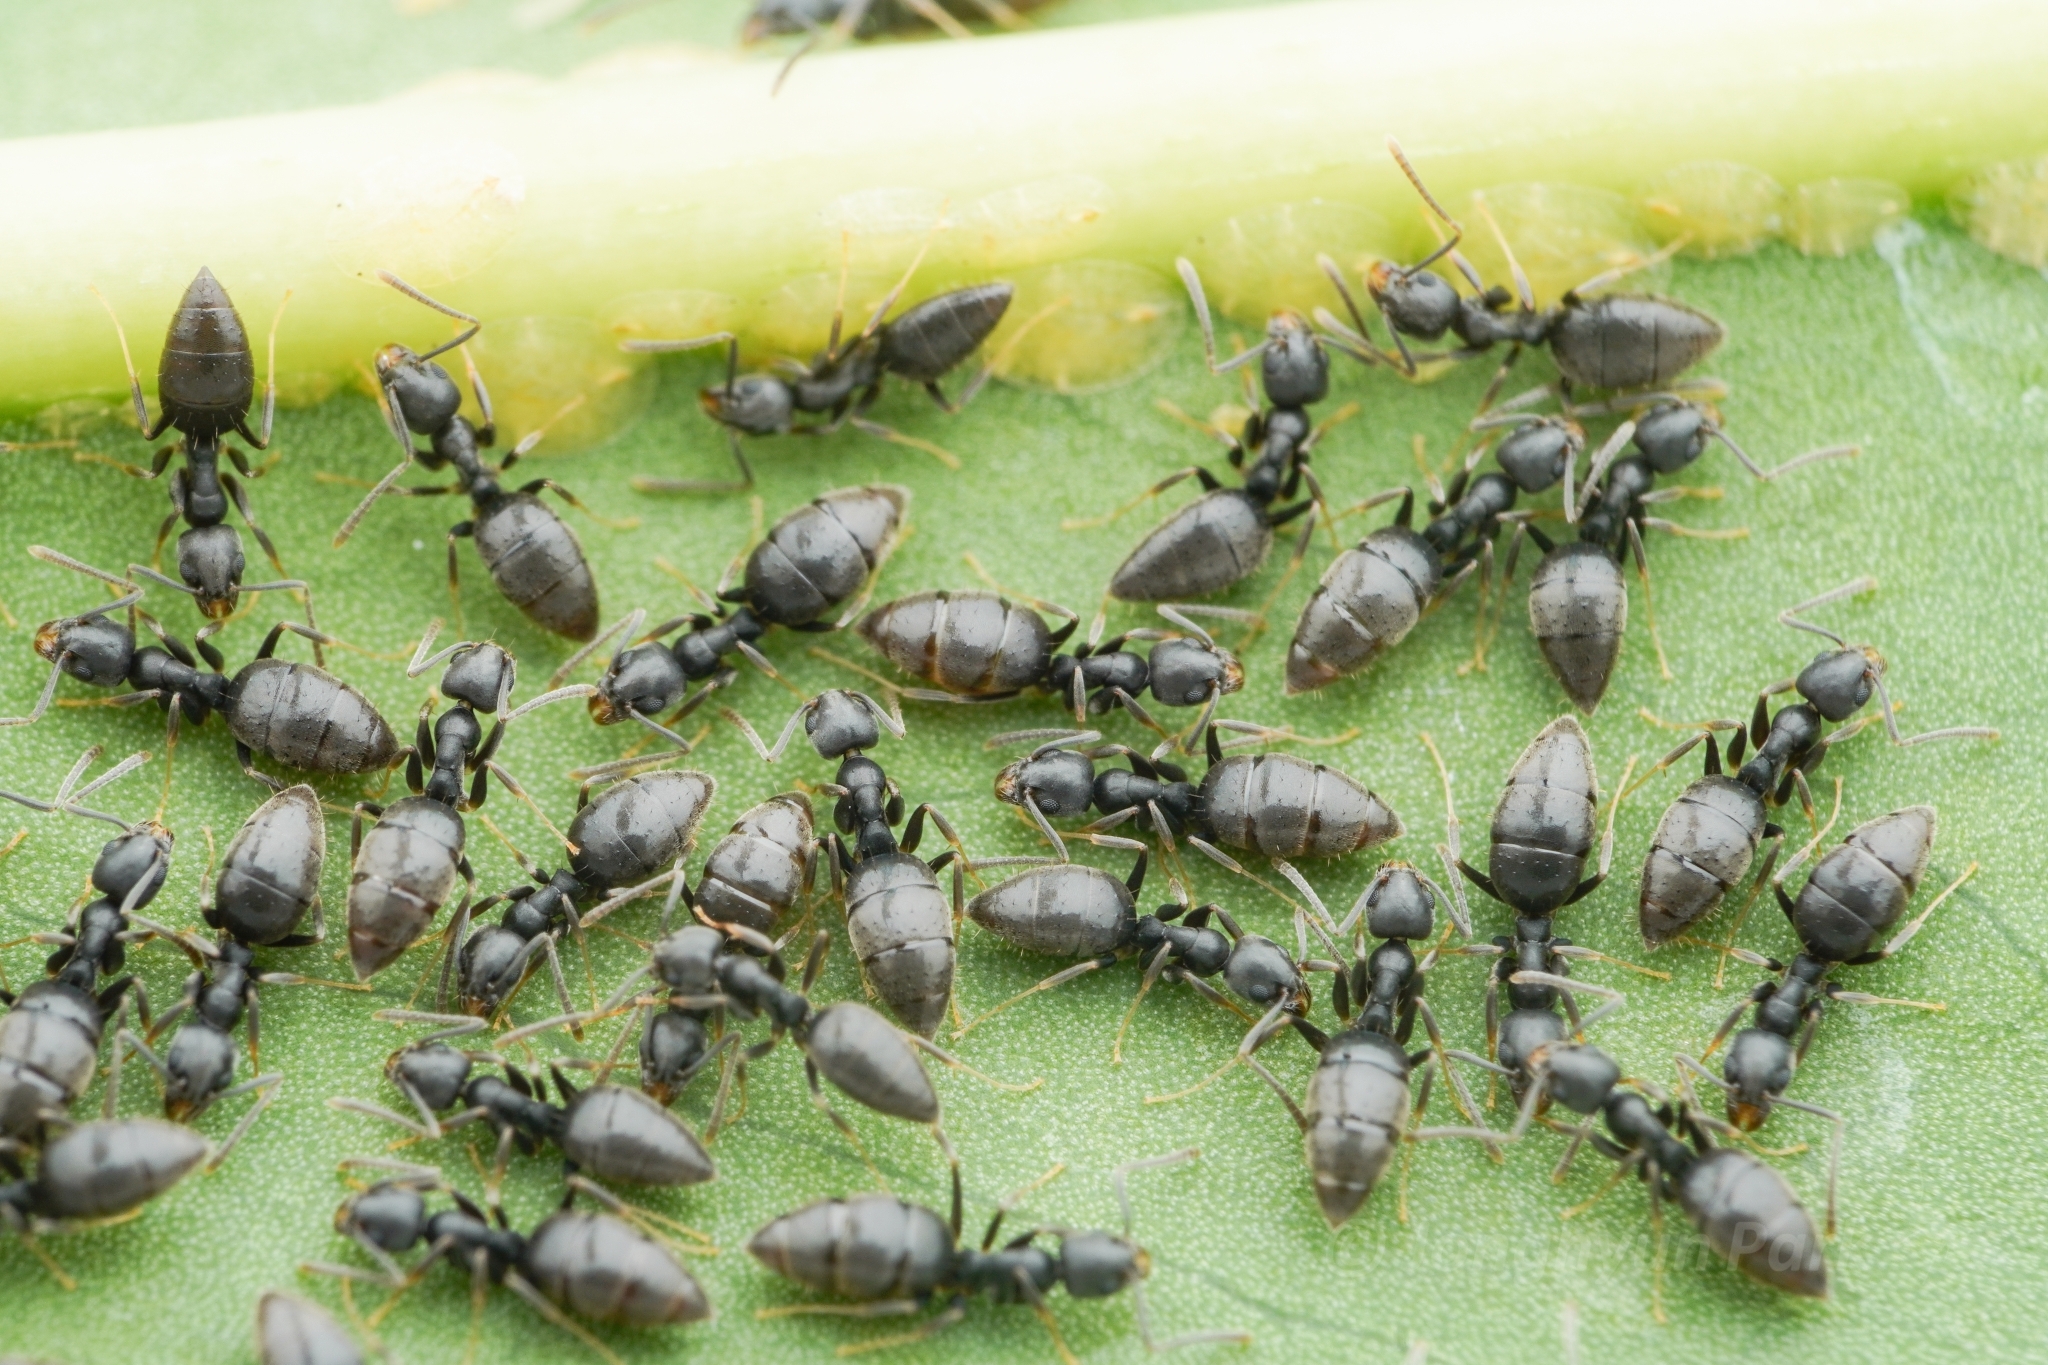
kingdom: Animalia
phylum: Arthropoda
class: Insecta
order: Hymenoptera
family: Formicidae
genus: Technomyrmex
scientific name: Technomyrmex vitiensis
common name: Ant
